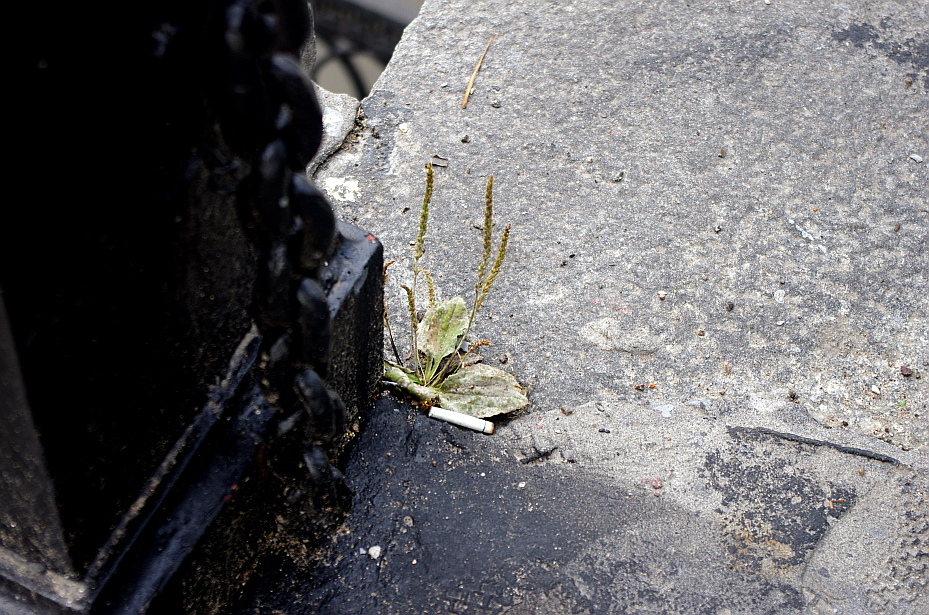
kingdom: Plantae
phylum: Tracheophyta
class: Magnoliopsida
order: Lamiales
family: Plantaginaceae
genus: Plantago
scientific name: Plantago major
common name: Common plantain
